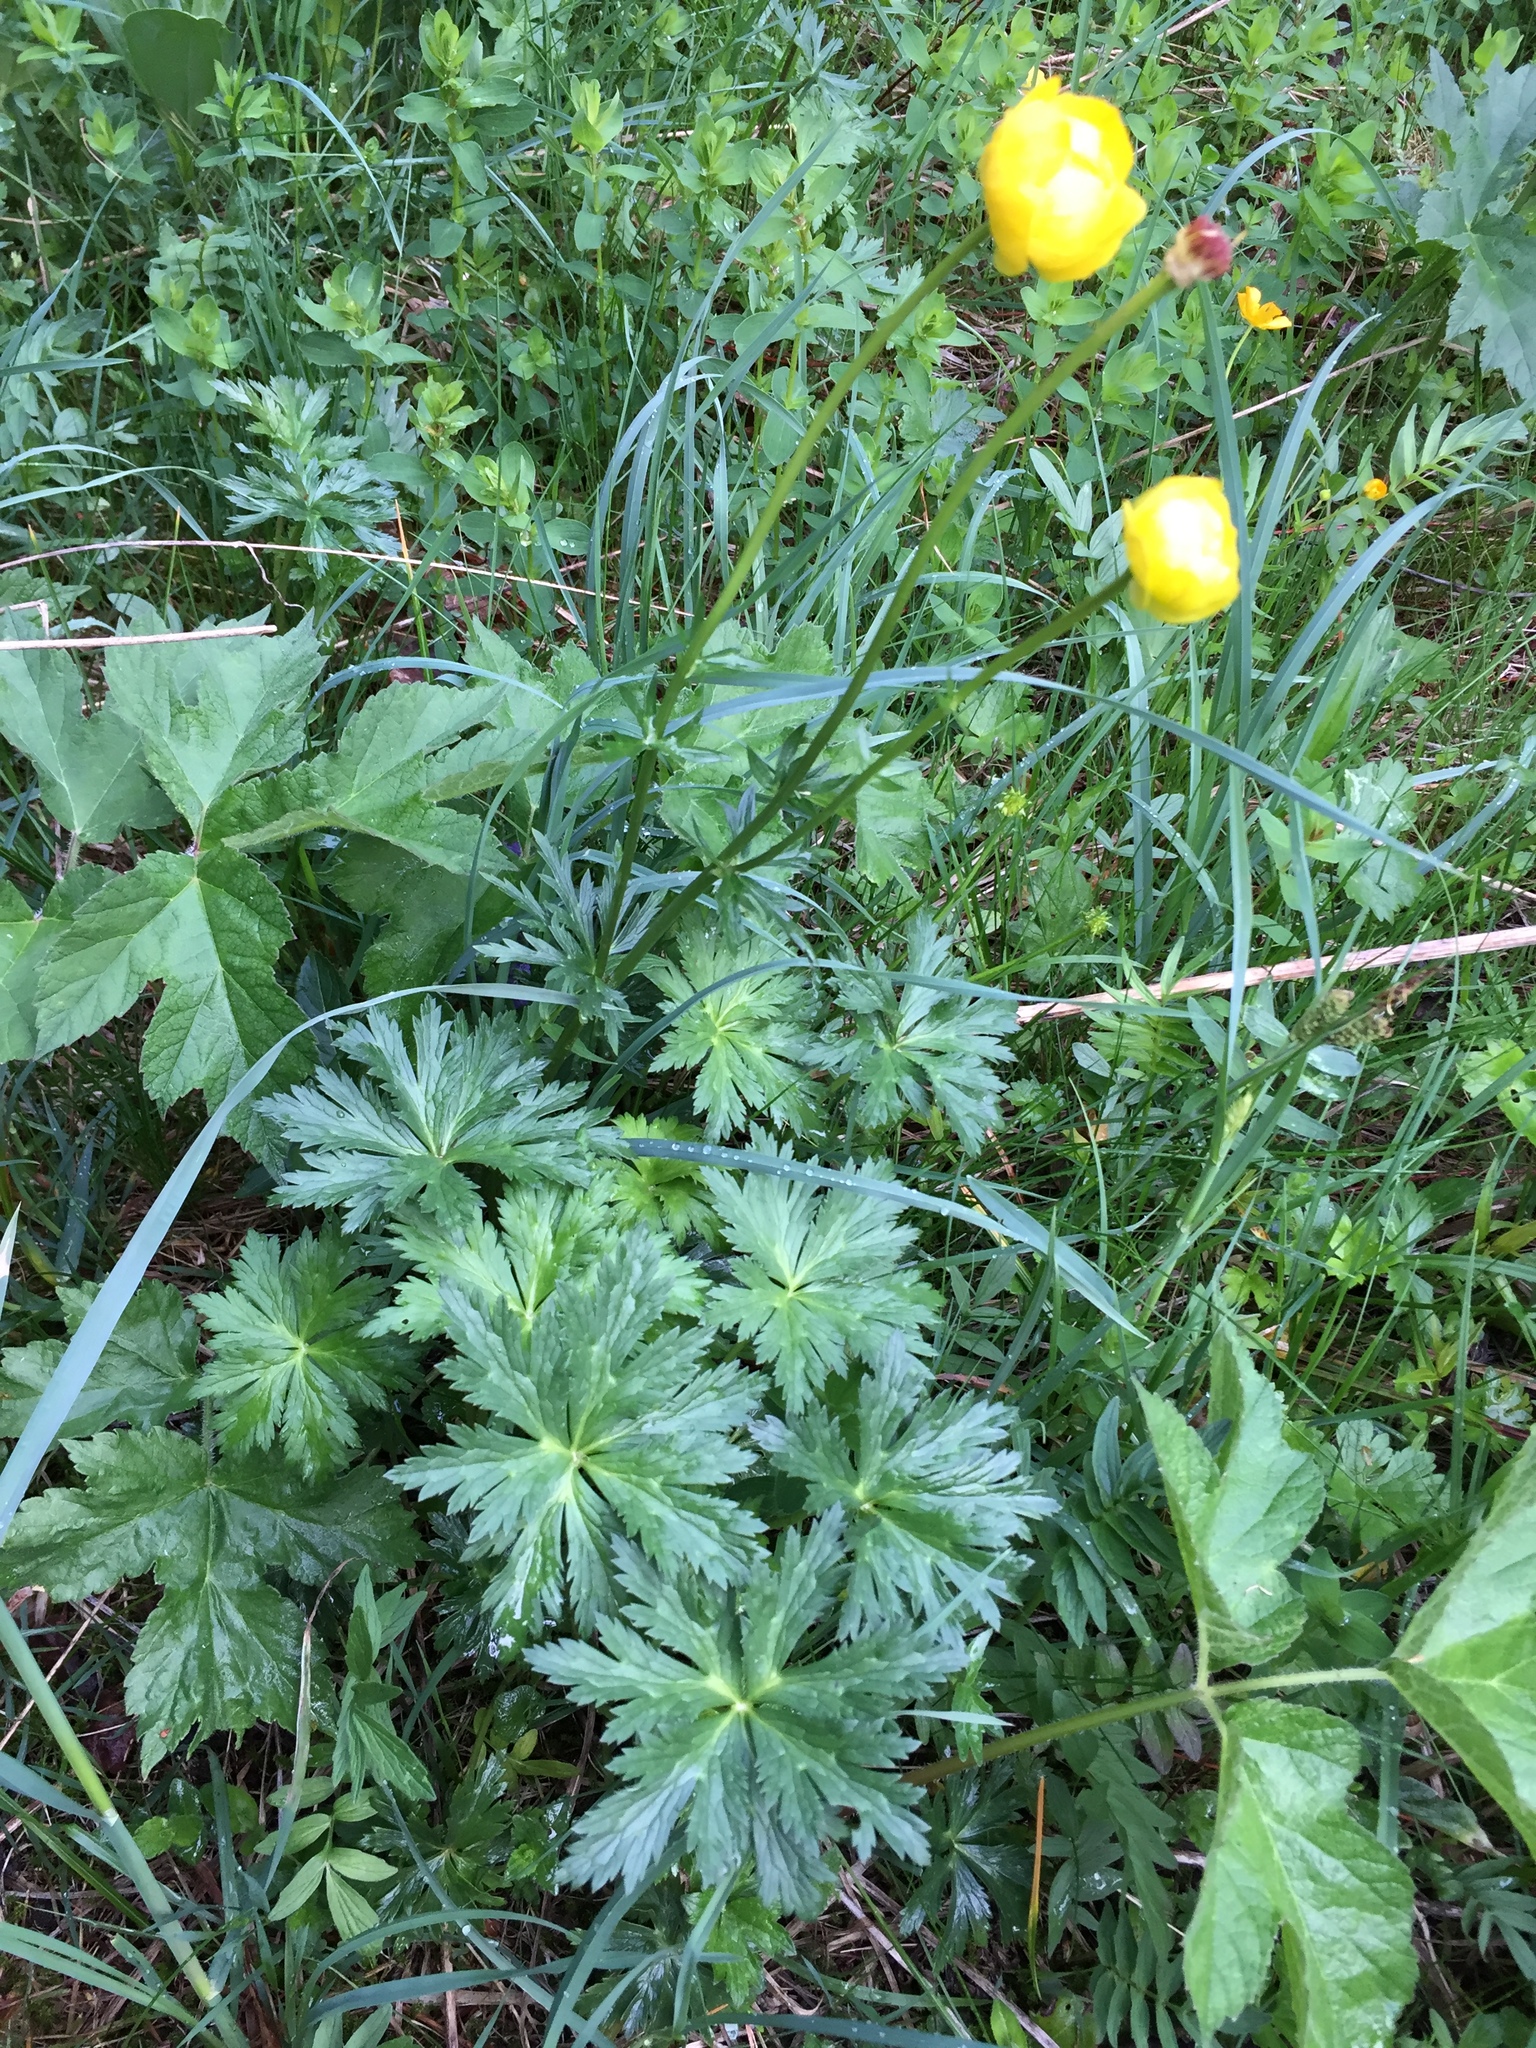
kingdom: Plantae
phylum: Tracheophyta
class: Magnoliopsida
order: Ranunculales
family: Ranunculaceae
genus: Trollius
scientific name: Trollius europaeus
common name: European globeflower
